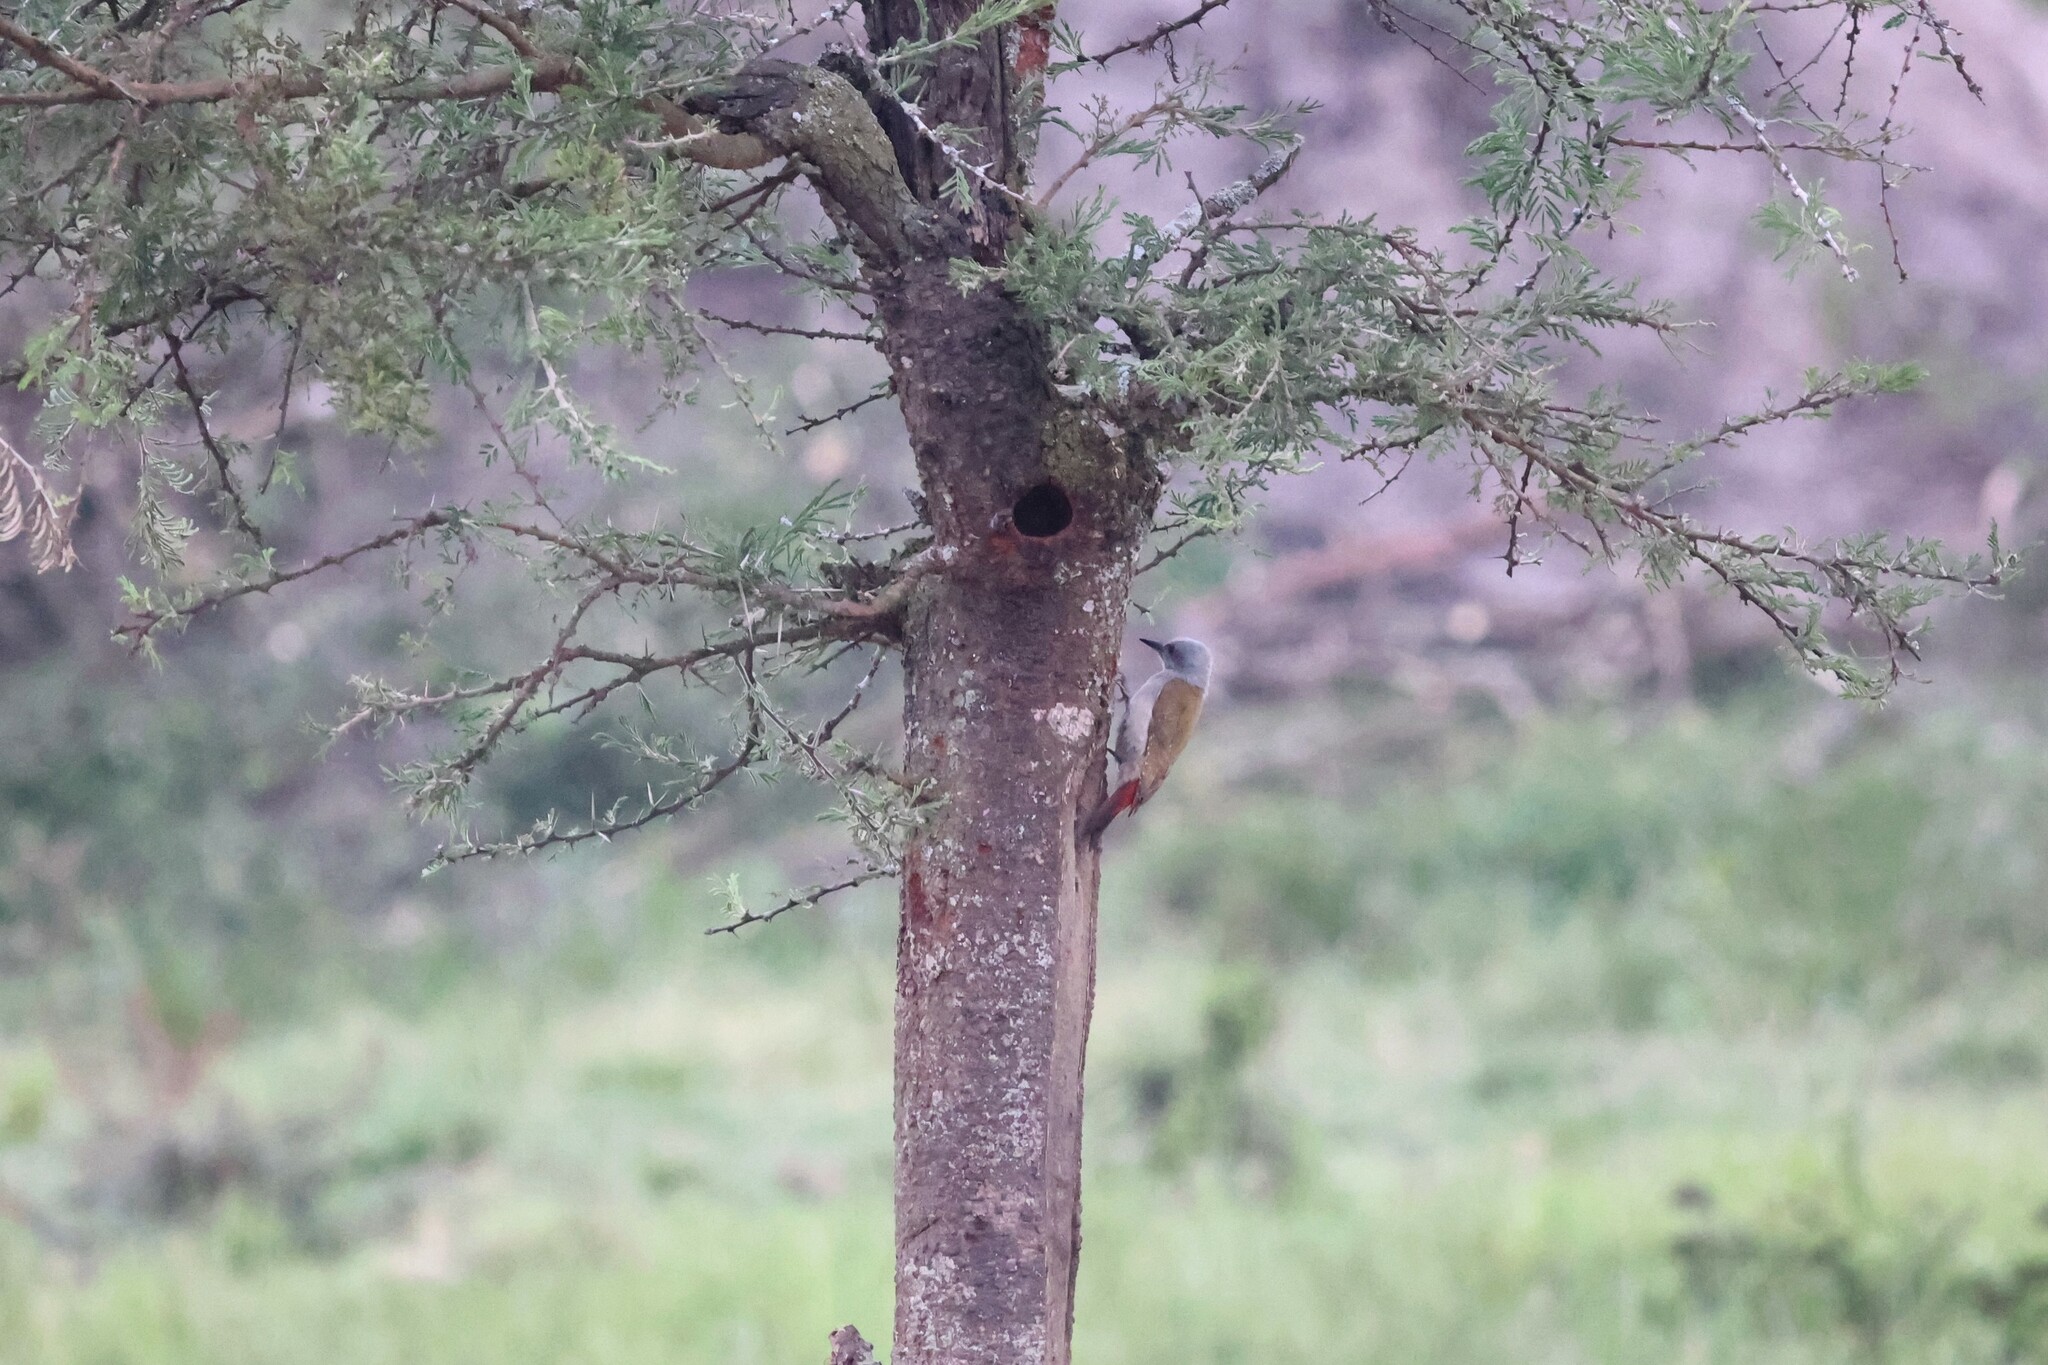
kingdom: Animalia
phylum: Chordata
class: Aves
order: Piciformes
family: Picidae
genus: Dendropicos
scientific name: Dendropicos goertae
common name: African grey woodpecker
